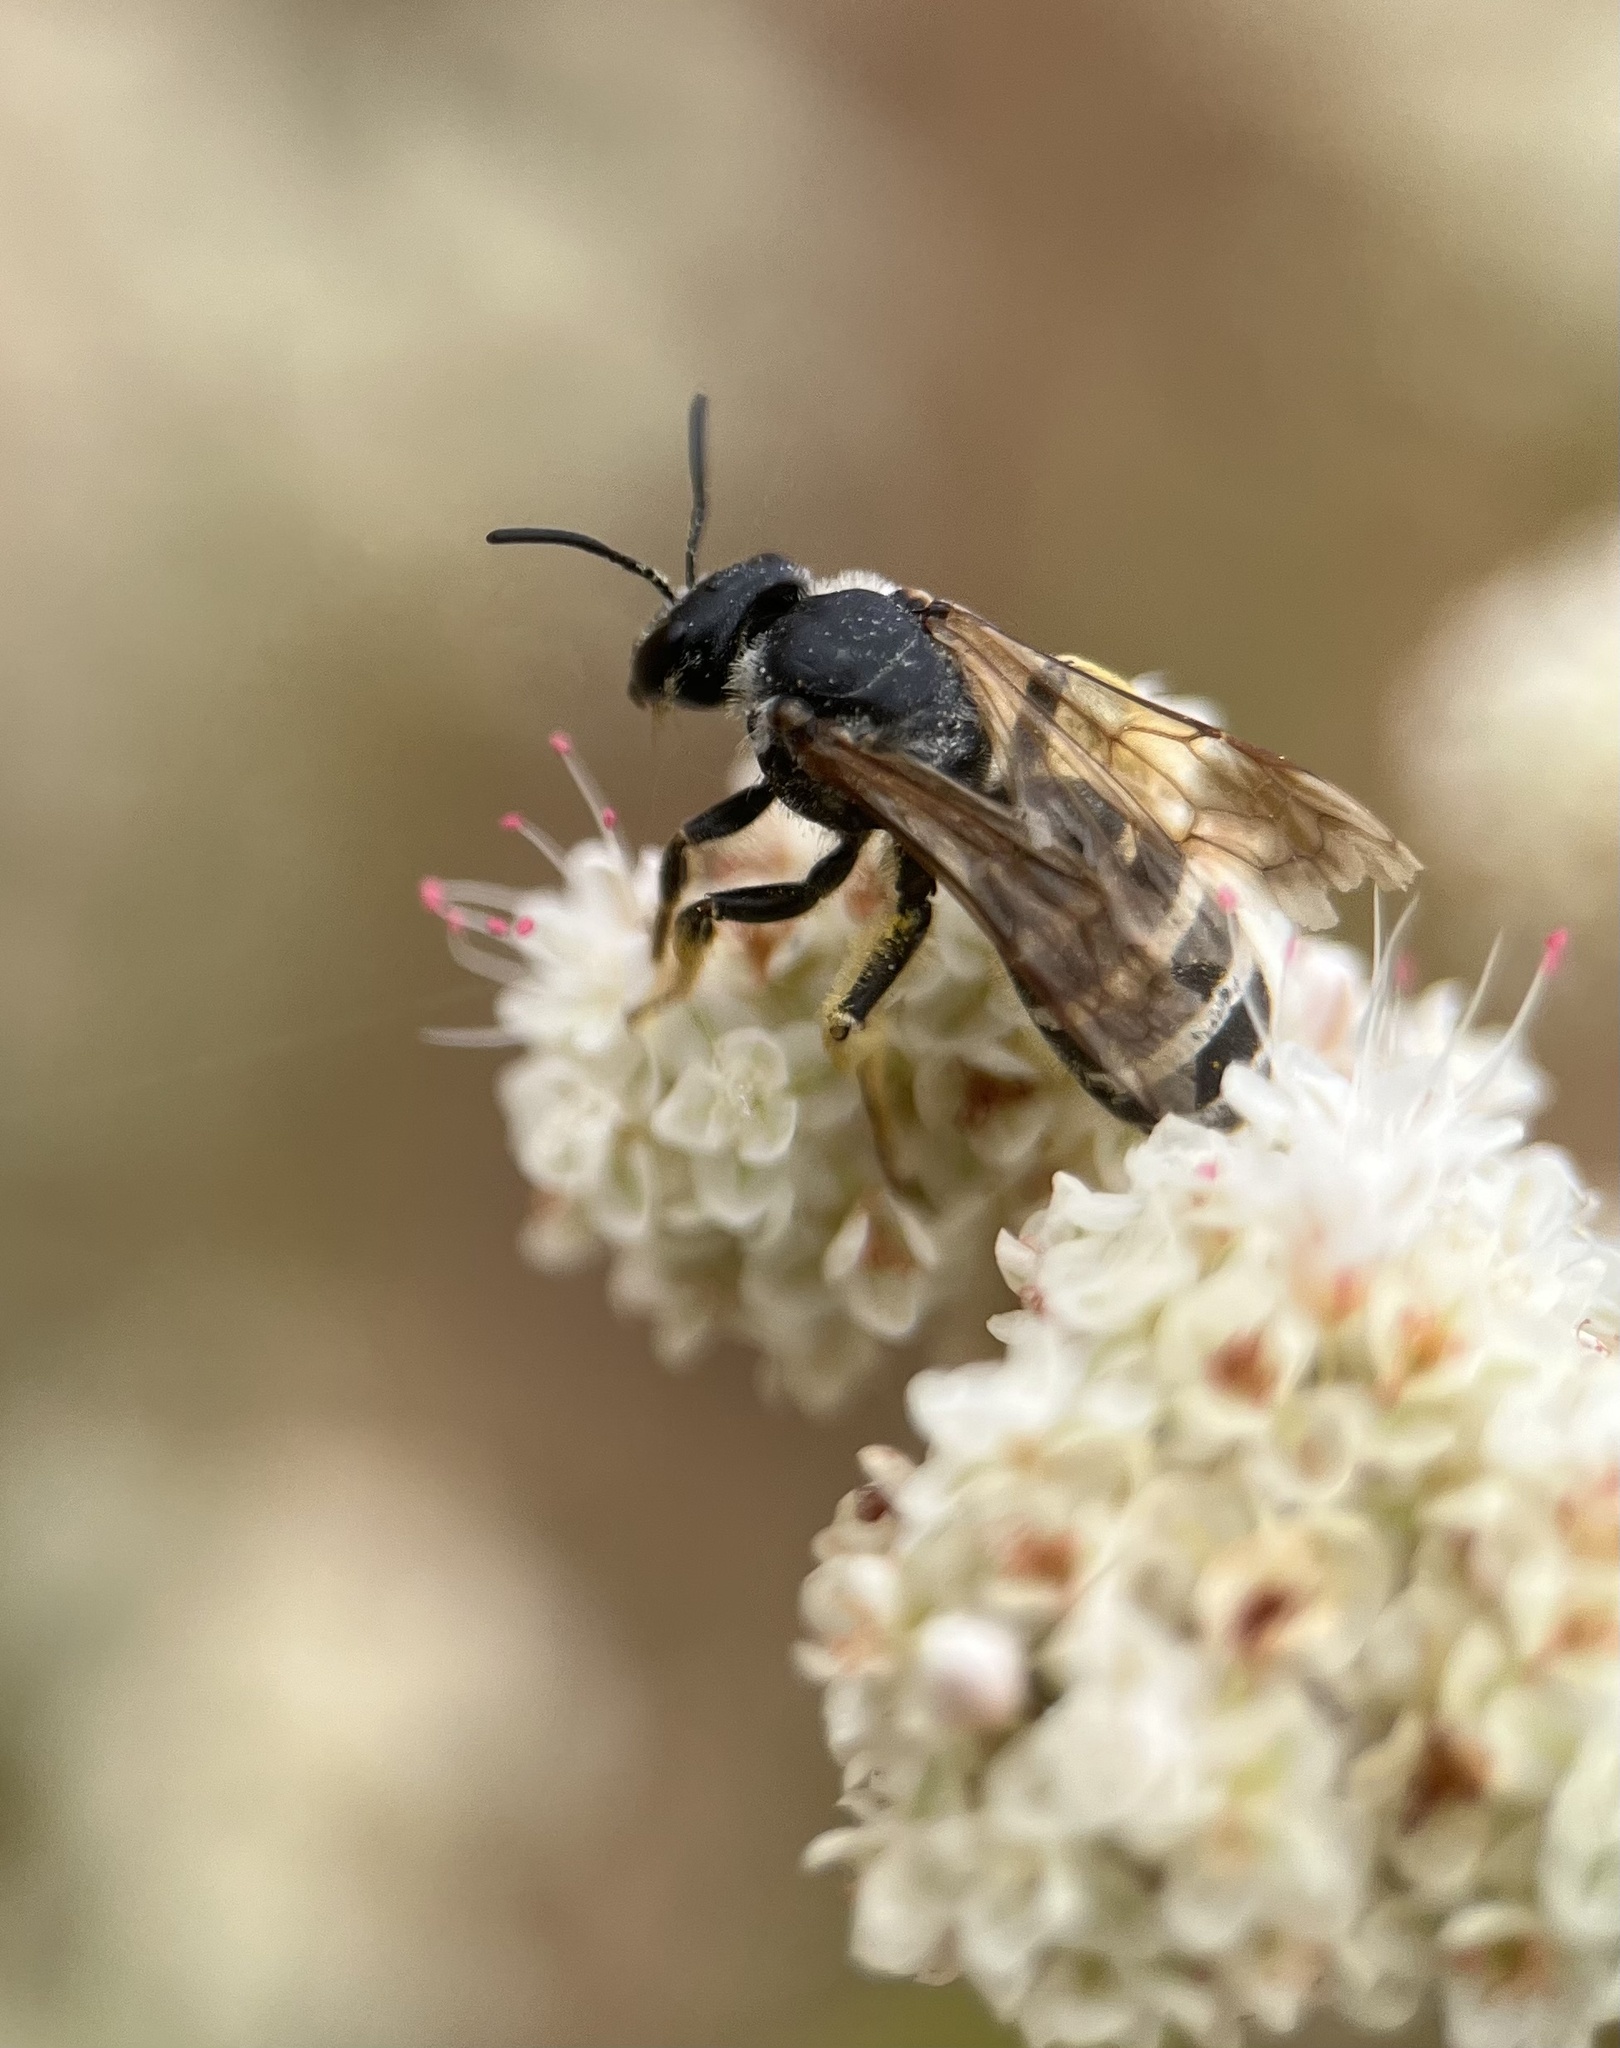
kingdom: Animalia
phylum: Arthropoda
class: Insecta
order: Hymenoptera
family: Halictidae
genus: Halictus
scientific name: Halictus farinosus
